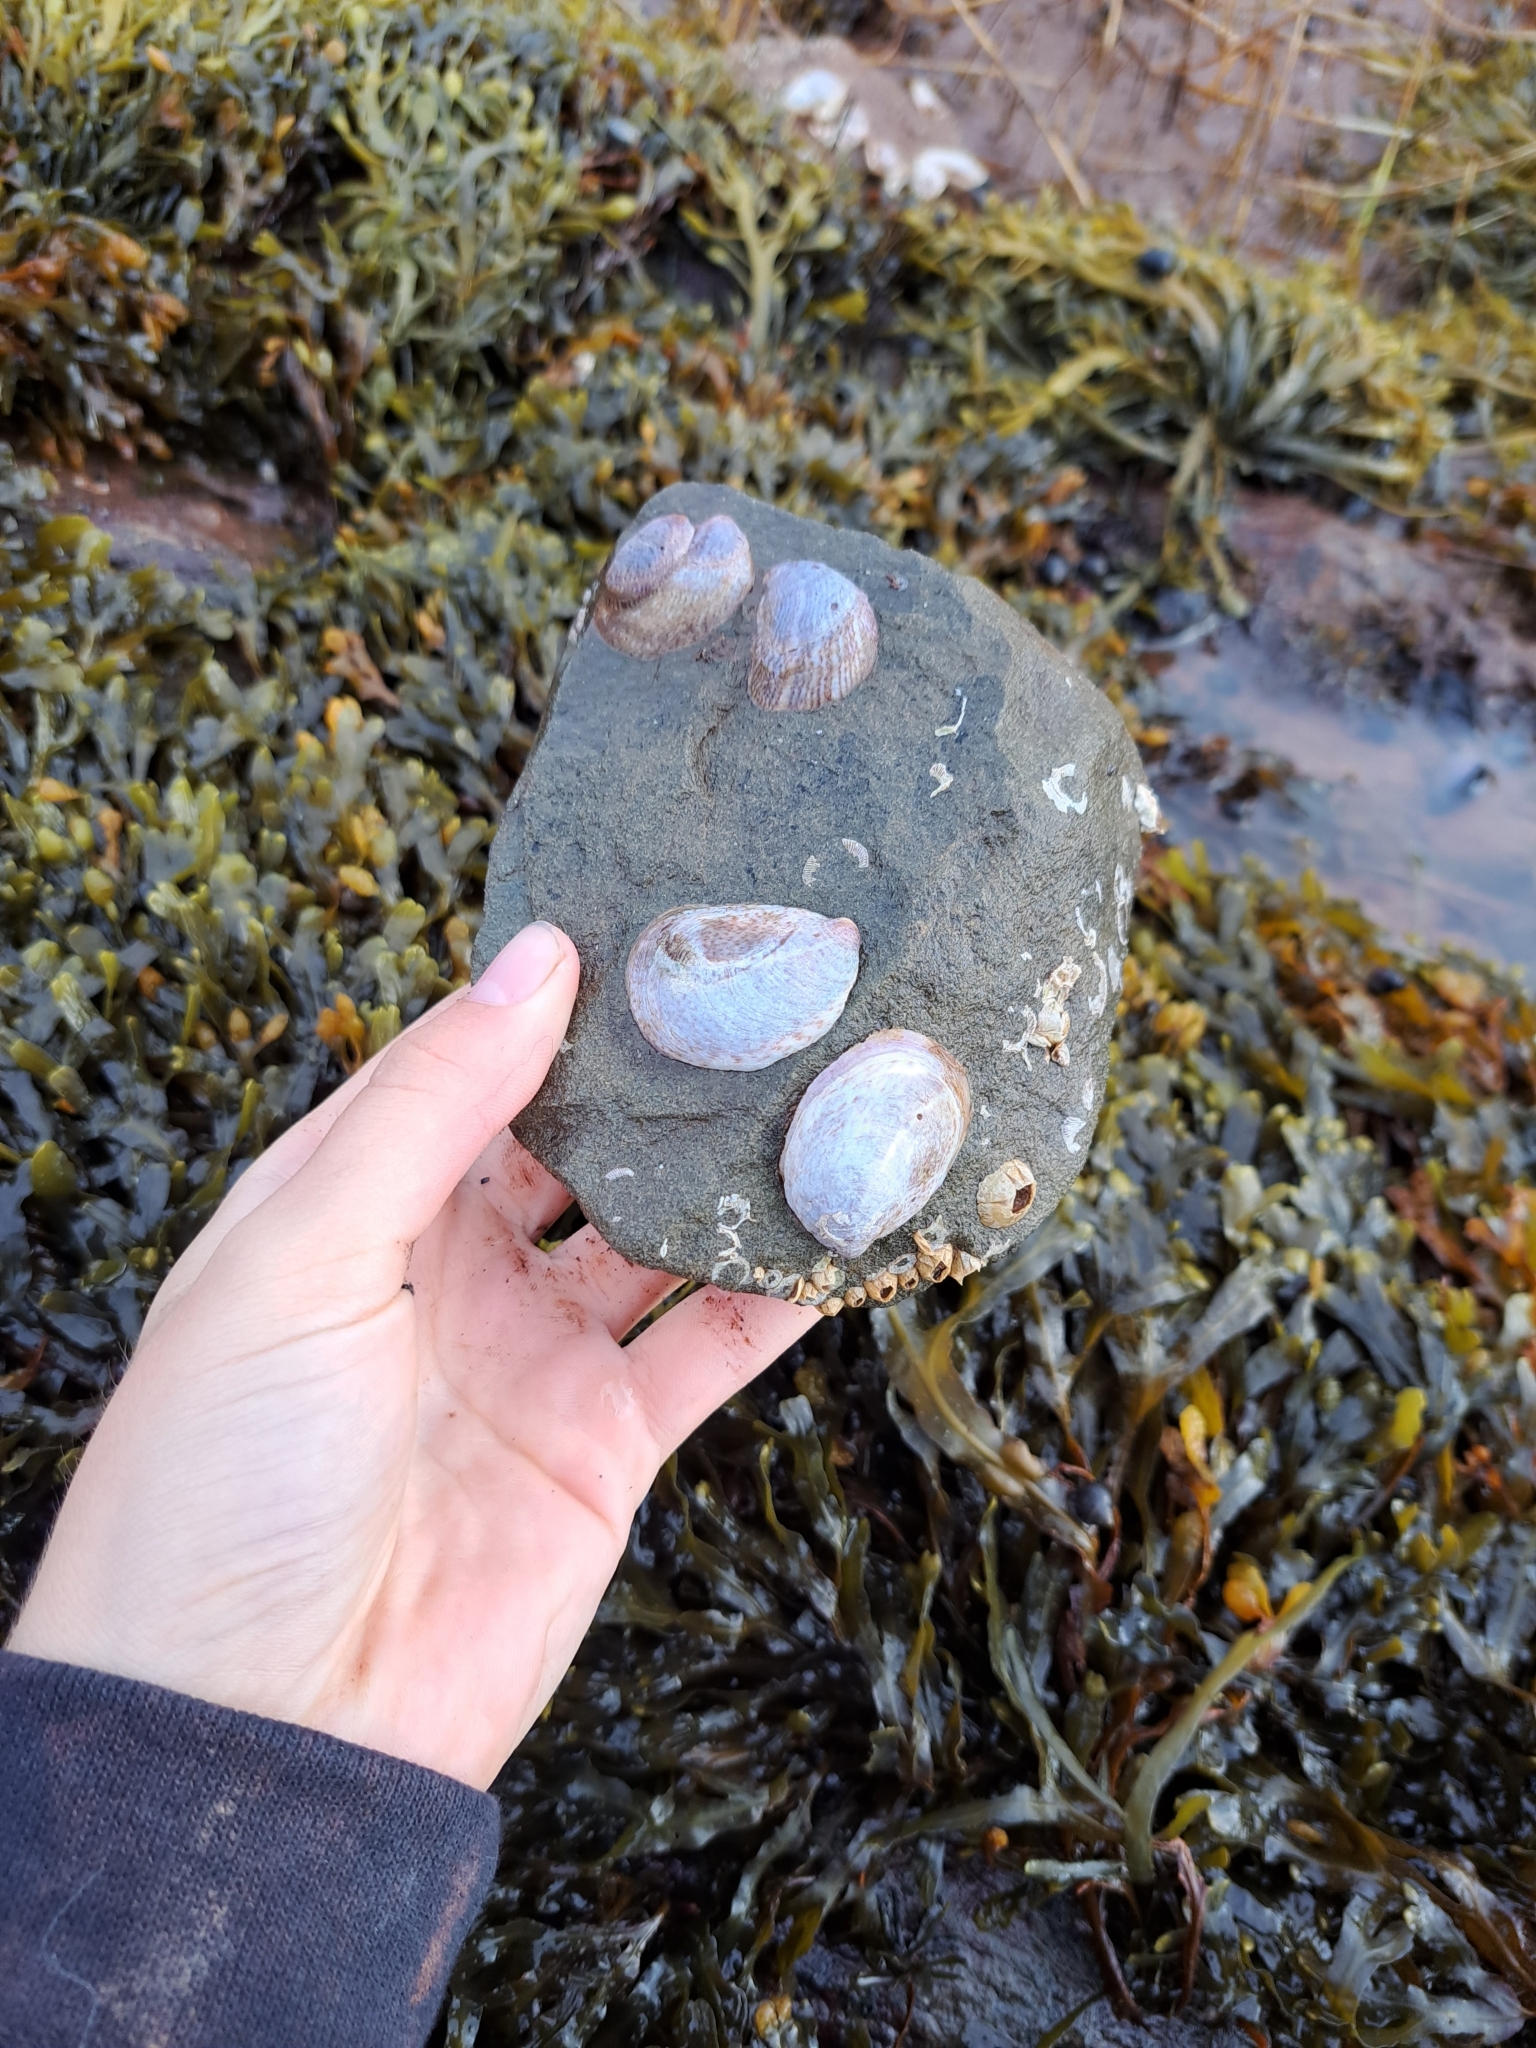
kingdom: Animalia
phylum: Mollusca
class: Gastropoda
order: Littorinimorpha
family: Calyptraeidae
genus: Crepidula
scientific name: Crepidula fornicata
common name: Slipper limpet
